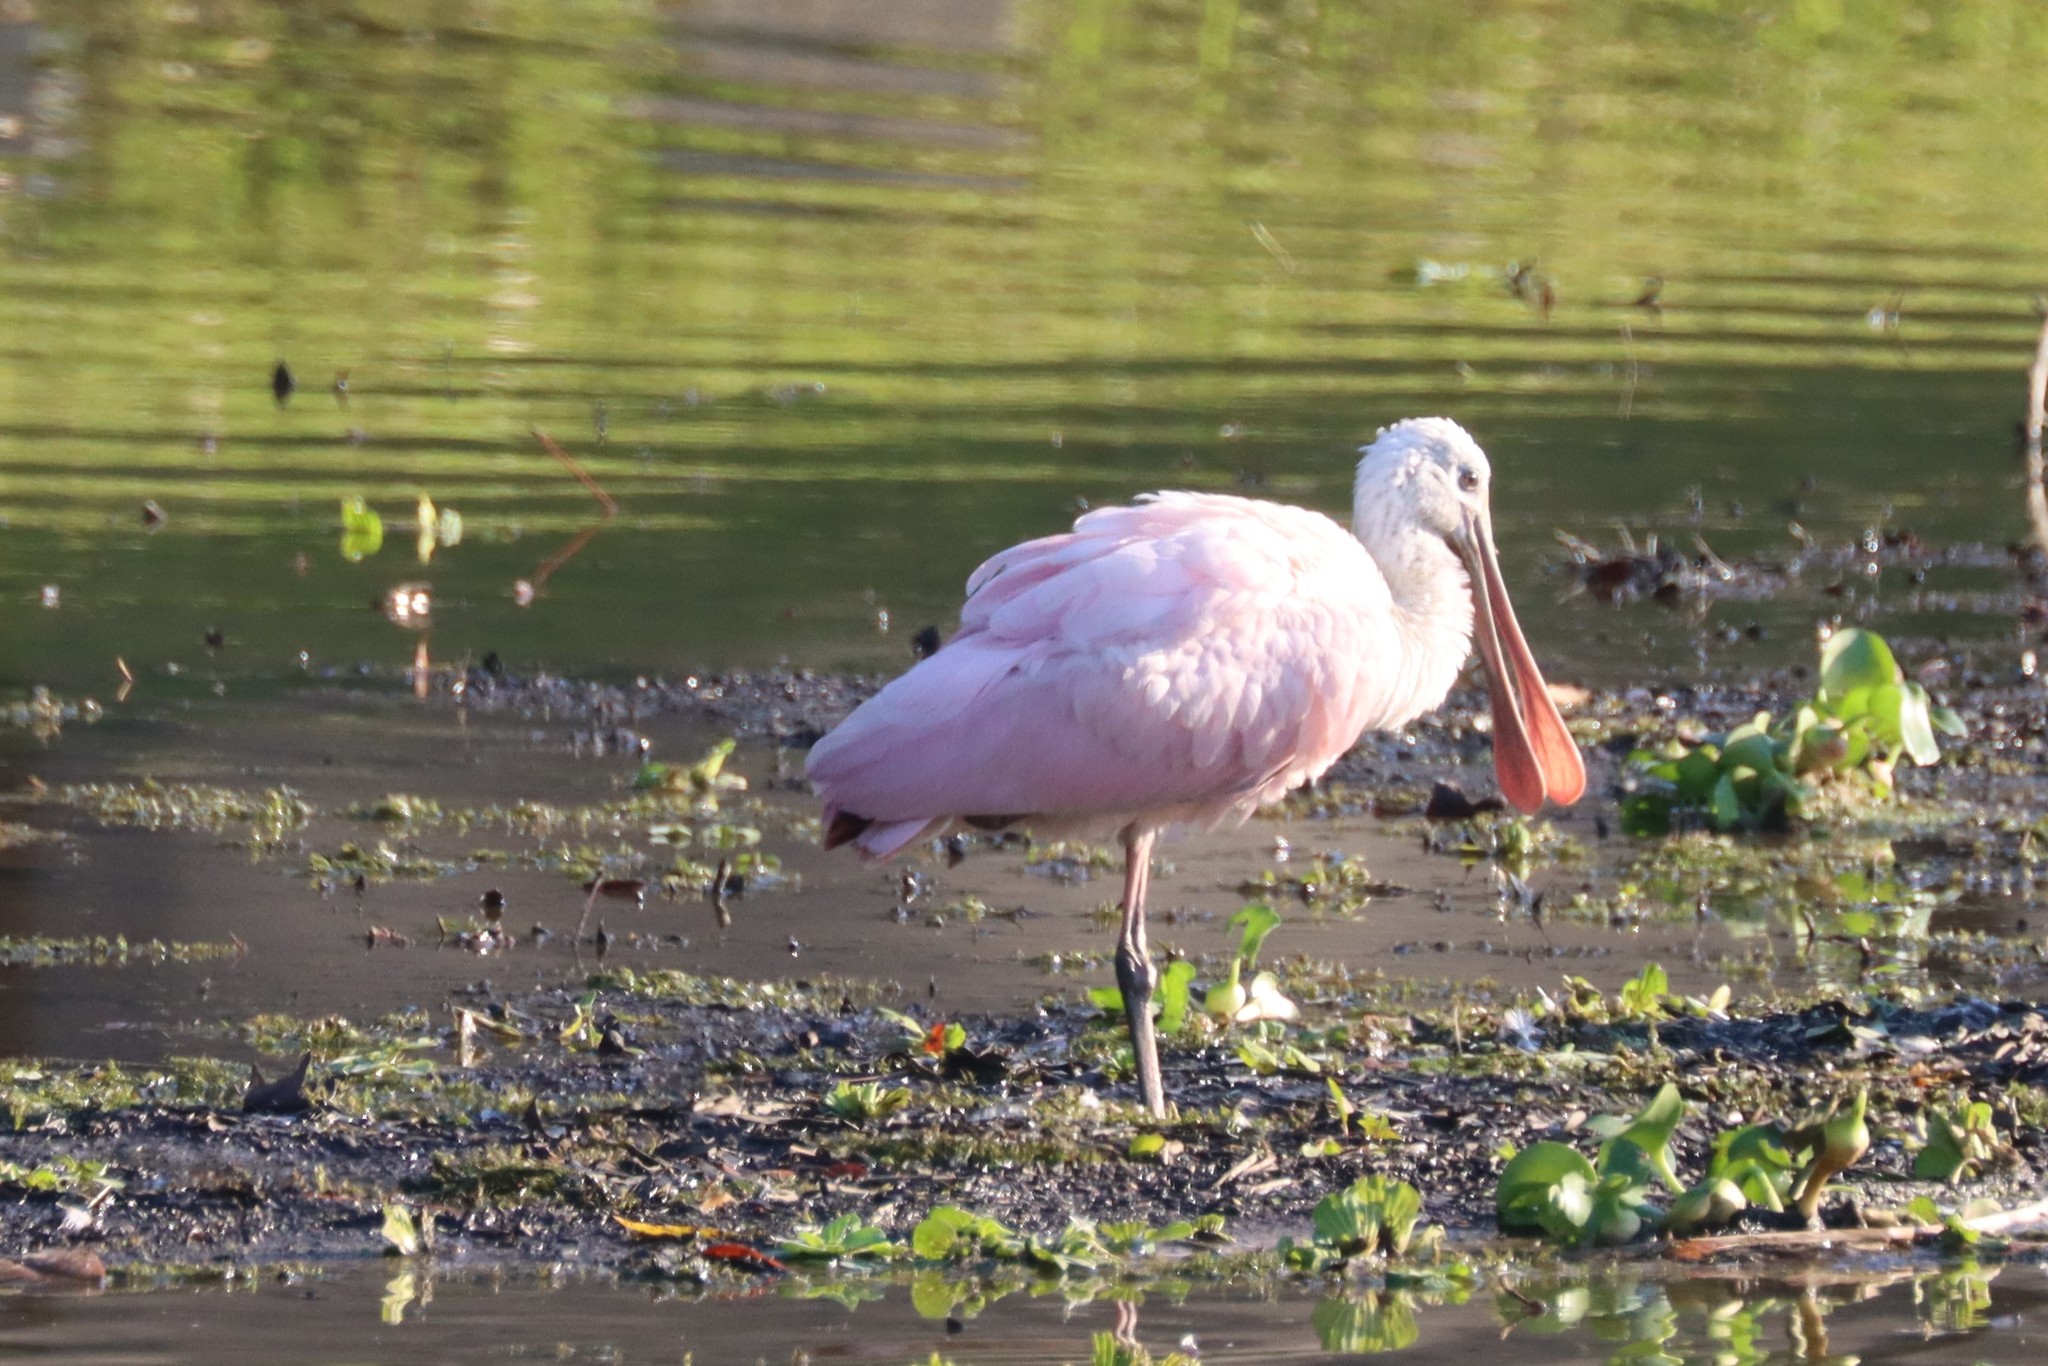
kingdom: Animalia
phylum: Chordata
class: Aves
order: Pelecaniformes
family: Threskiornithidae
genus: Platalea
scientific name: Platalea ajaja
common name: Roseate spoonbill
